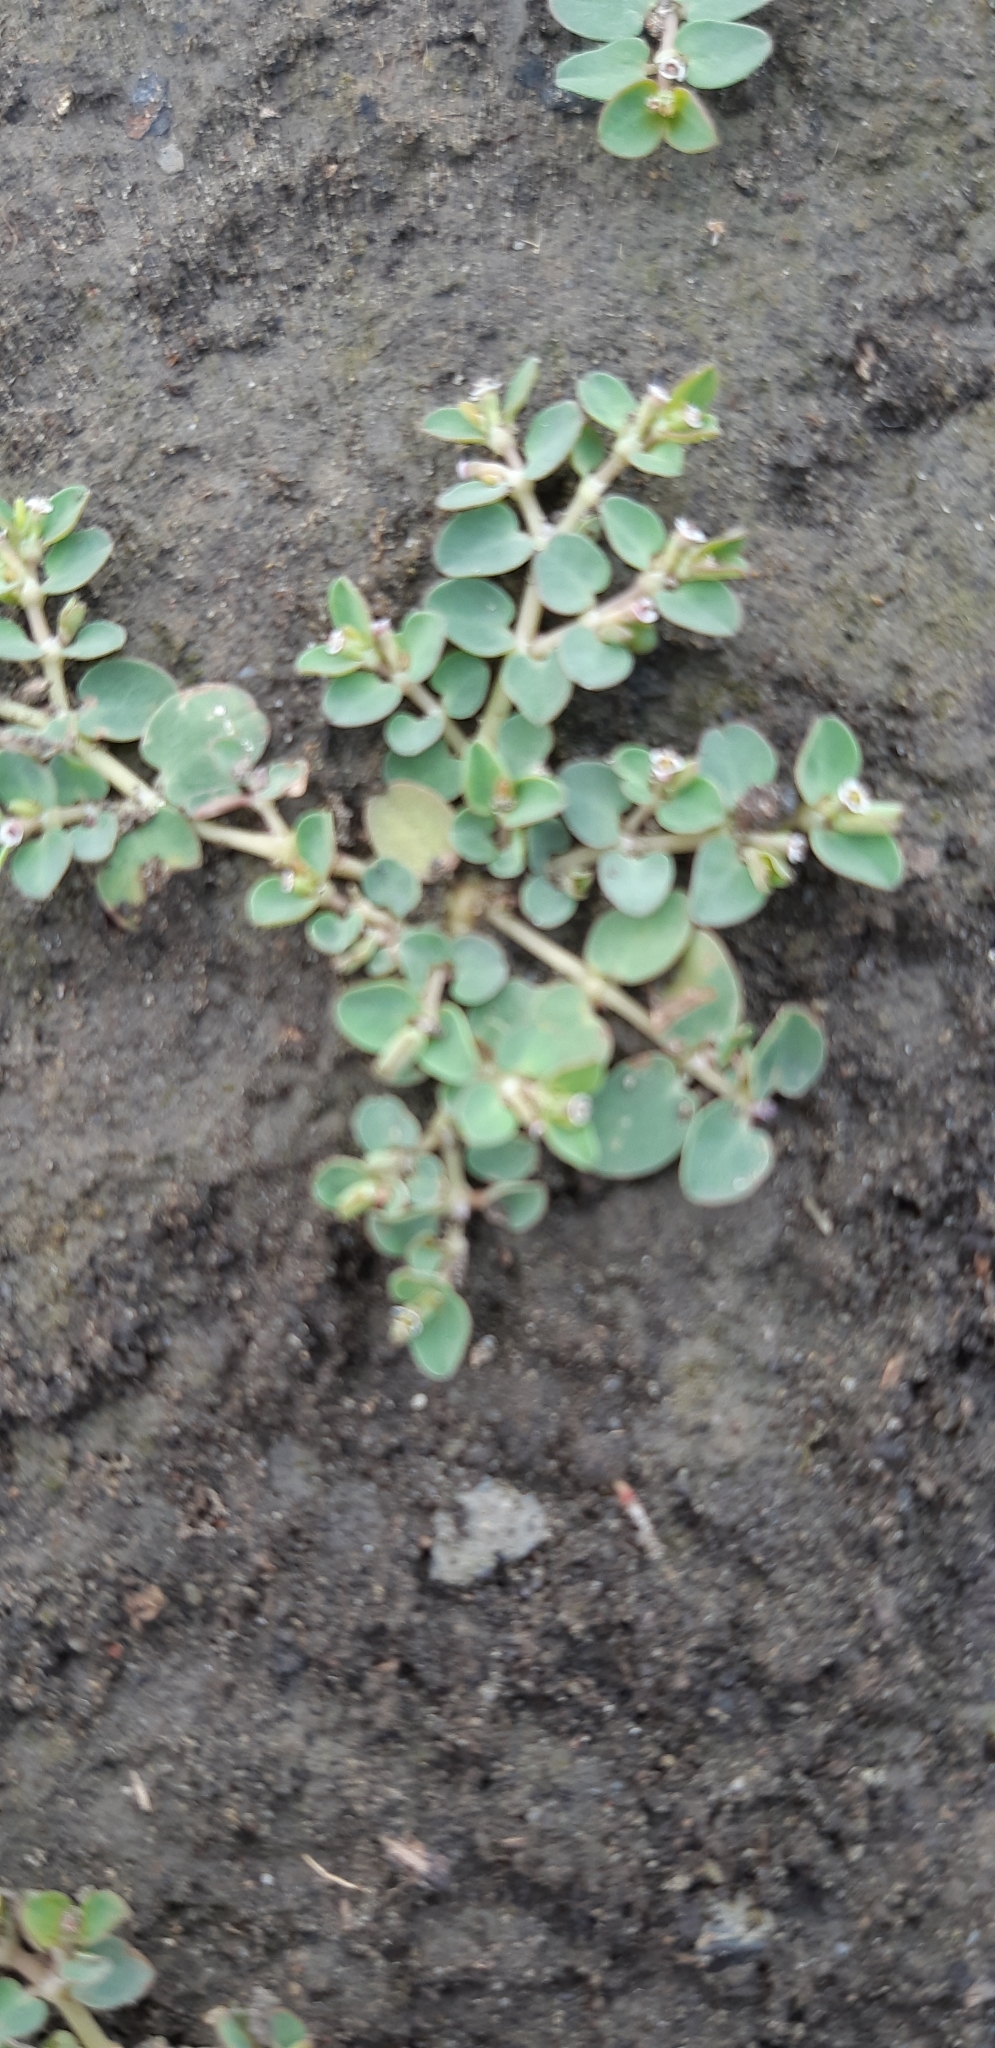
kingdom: Plantae
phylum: Tracheophyta
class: Magnoliopsida
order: Malpighiales
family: Euphorbiaceae
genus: Euphorbia
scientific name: Euphorbia serpens
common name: Matted sandmat
